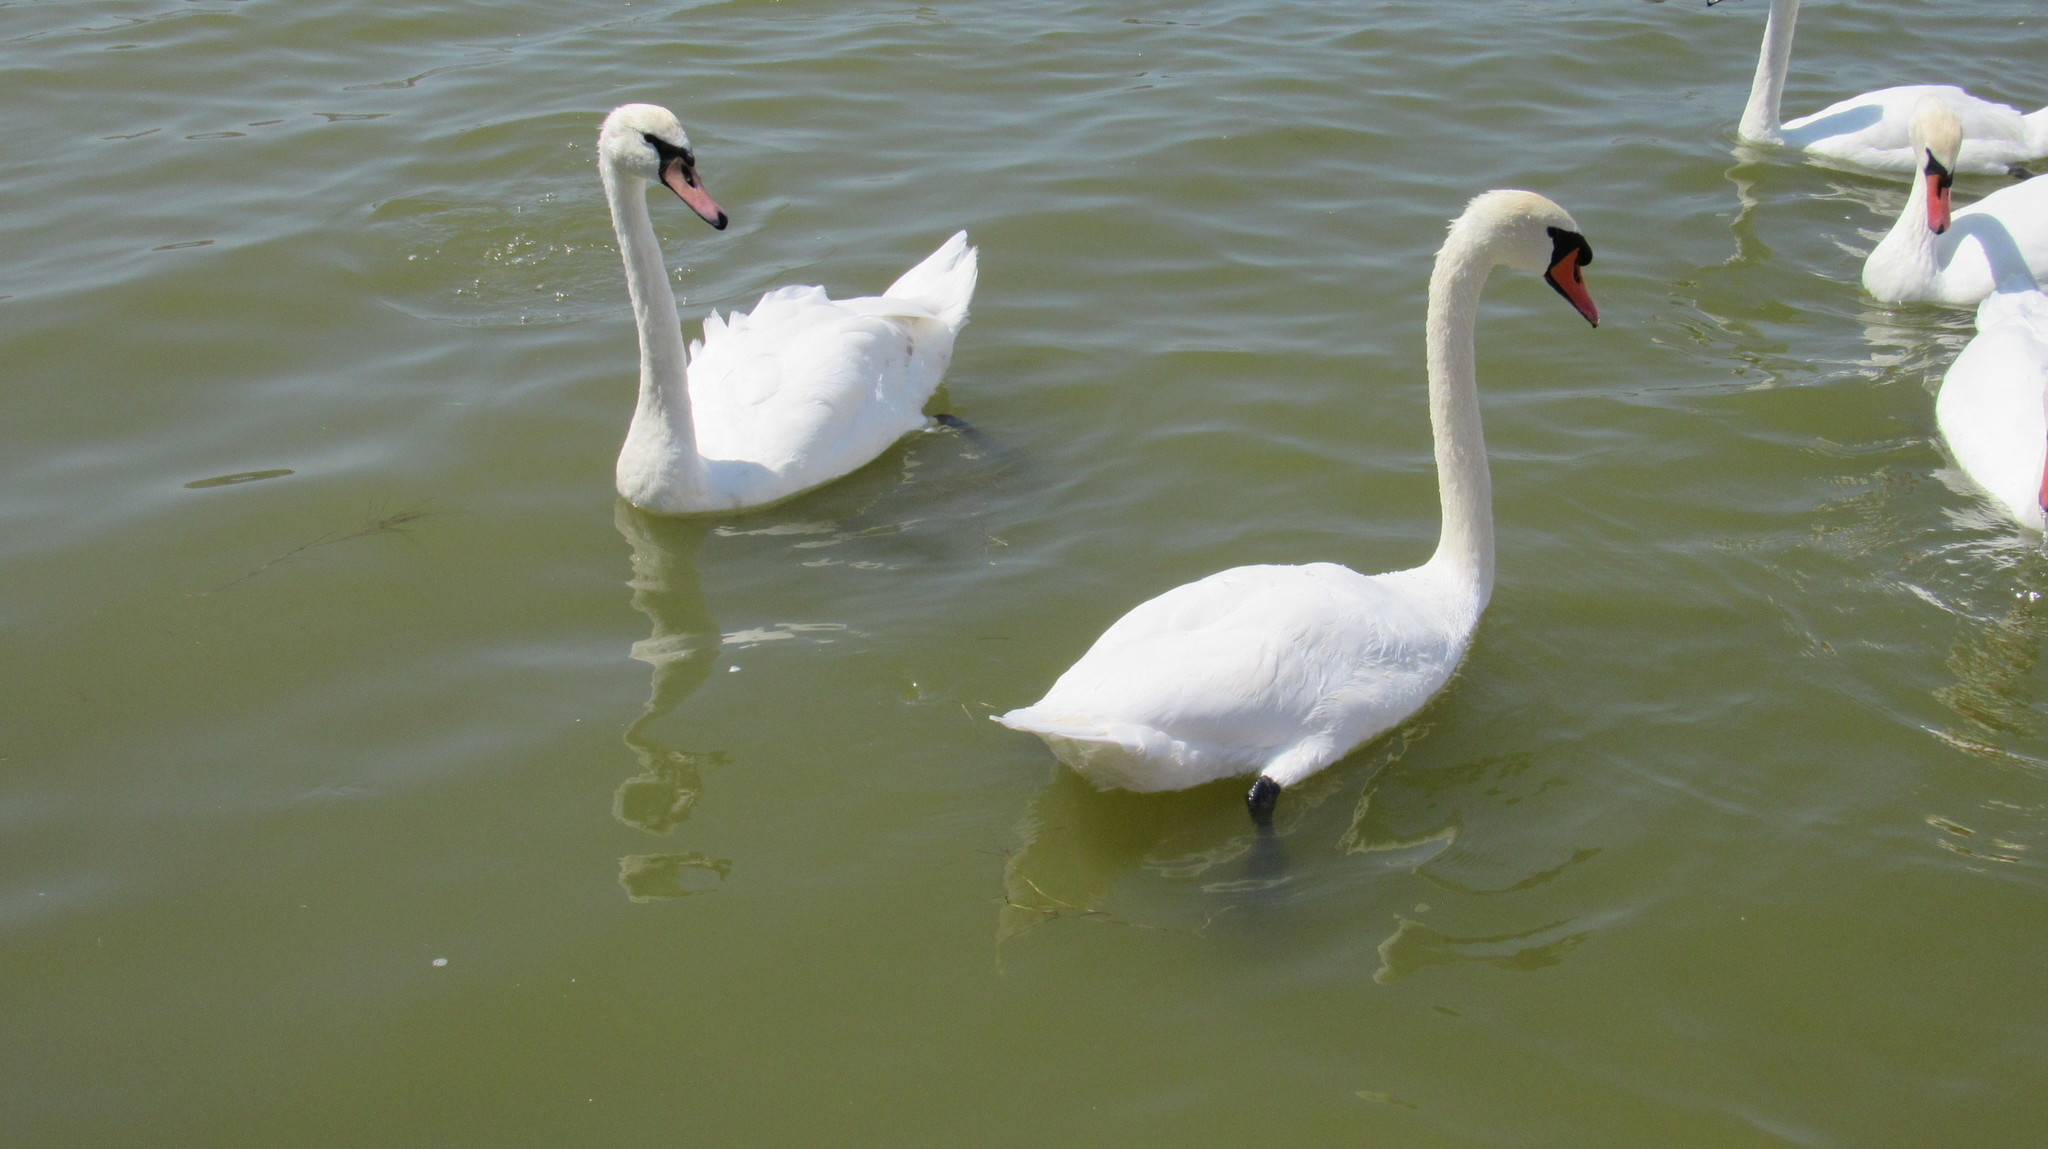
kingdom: Animalia
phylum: Chordata
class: Aves
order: Anseriformes
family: Anatidae
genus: Cygnus
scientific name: Cygnus olor
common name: Mute swan
